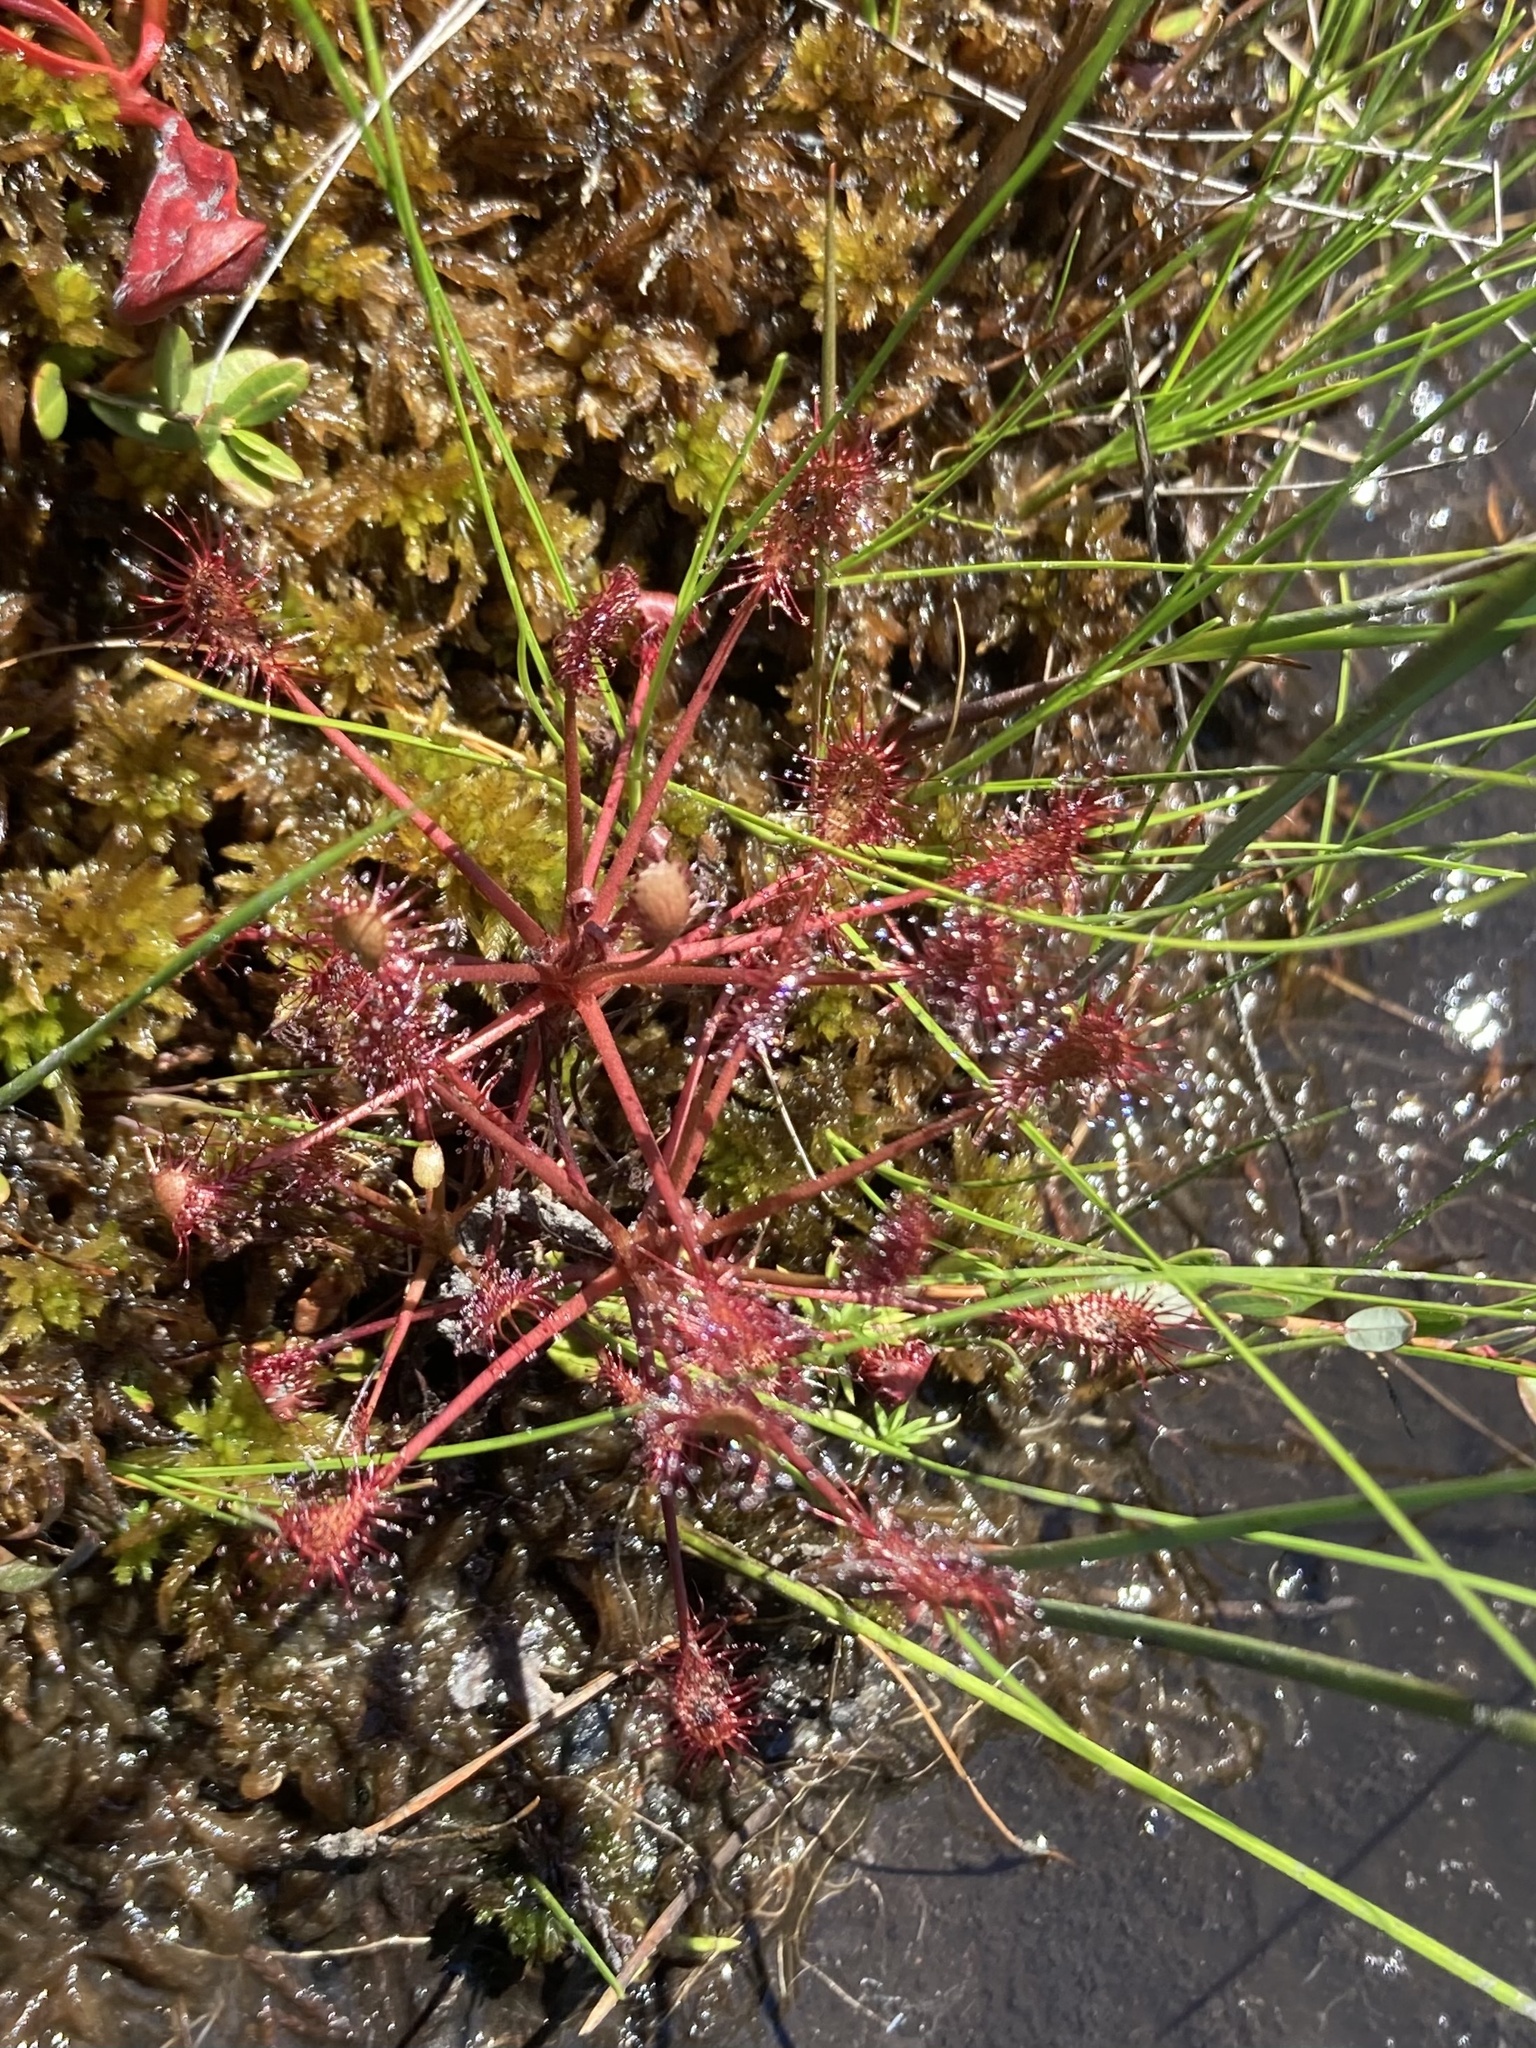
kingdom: Plantae
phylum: Tracheophyta
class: Magnoliopsida
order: Caryophyllales
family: Droseraceae
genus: Drosera
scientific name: Drosera intermedia
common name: Oblong-leaved sundew
